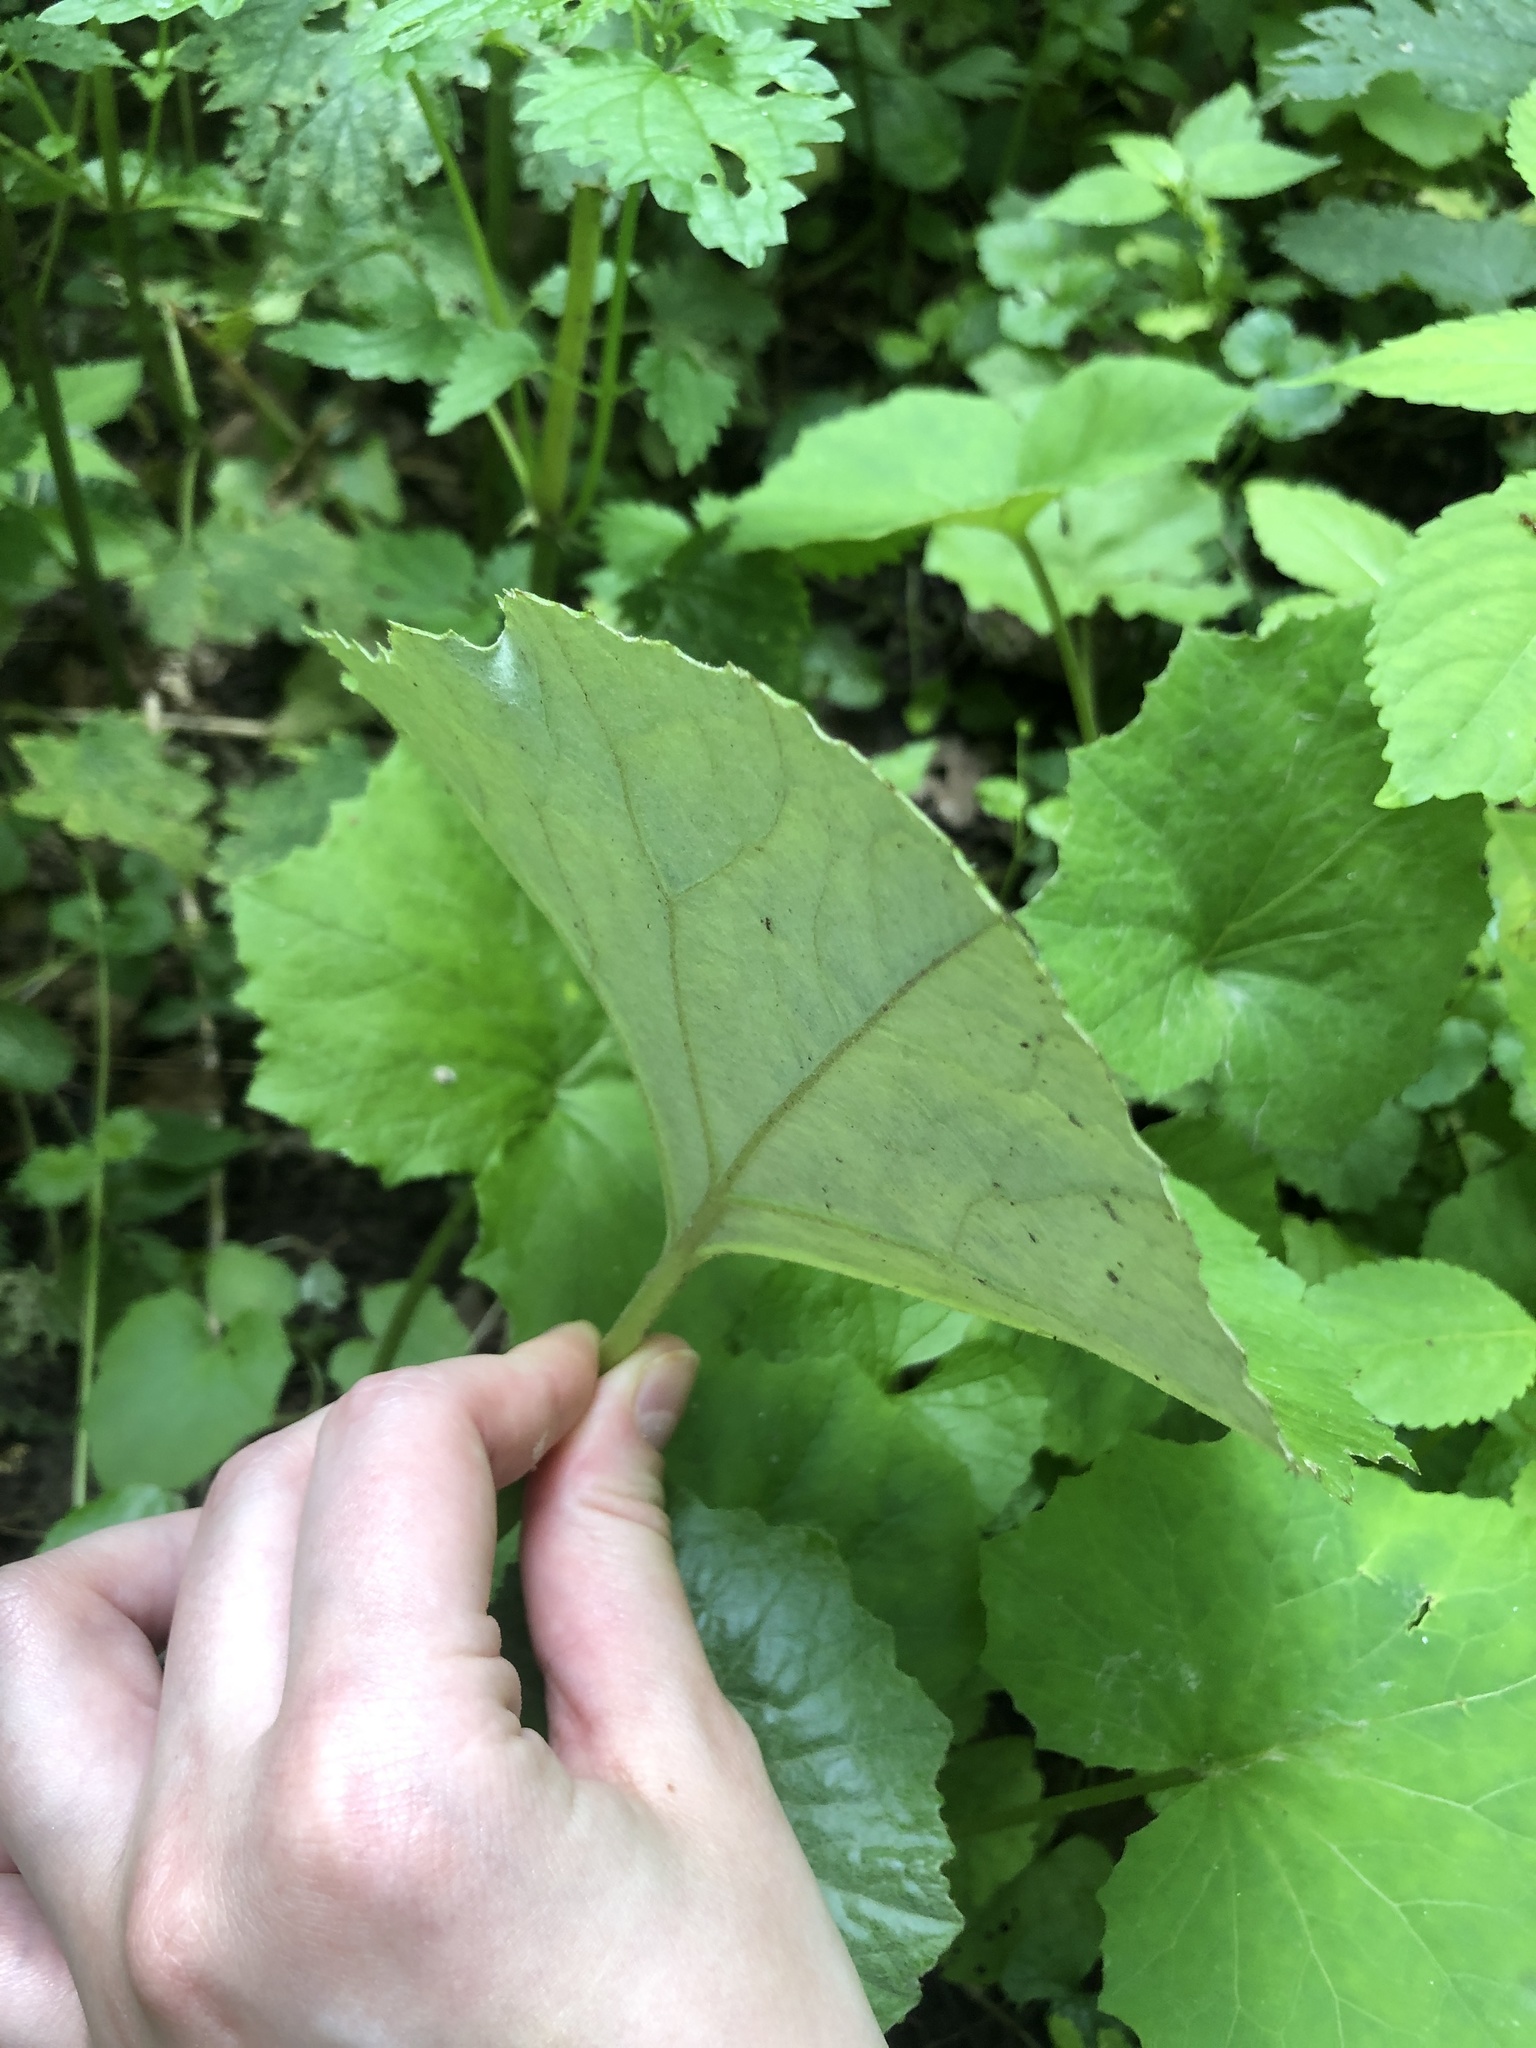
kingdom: Plantae
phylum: Tracheophyta
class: Magnoliopsida
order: Asterales
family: Asteraceae
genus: Tussilago
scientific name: Tussilago farfara
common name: Coltsfoot
